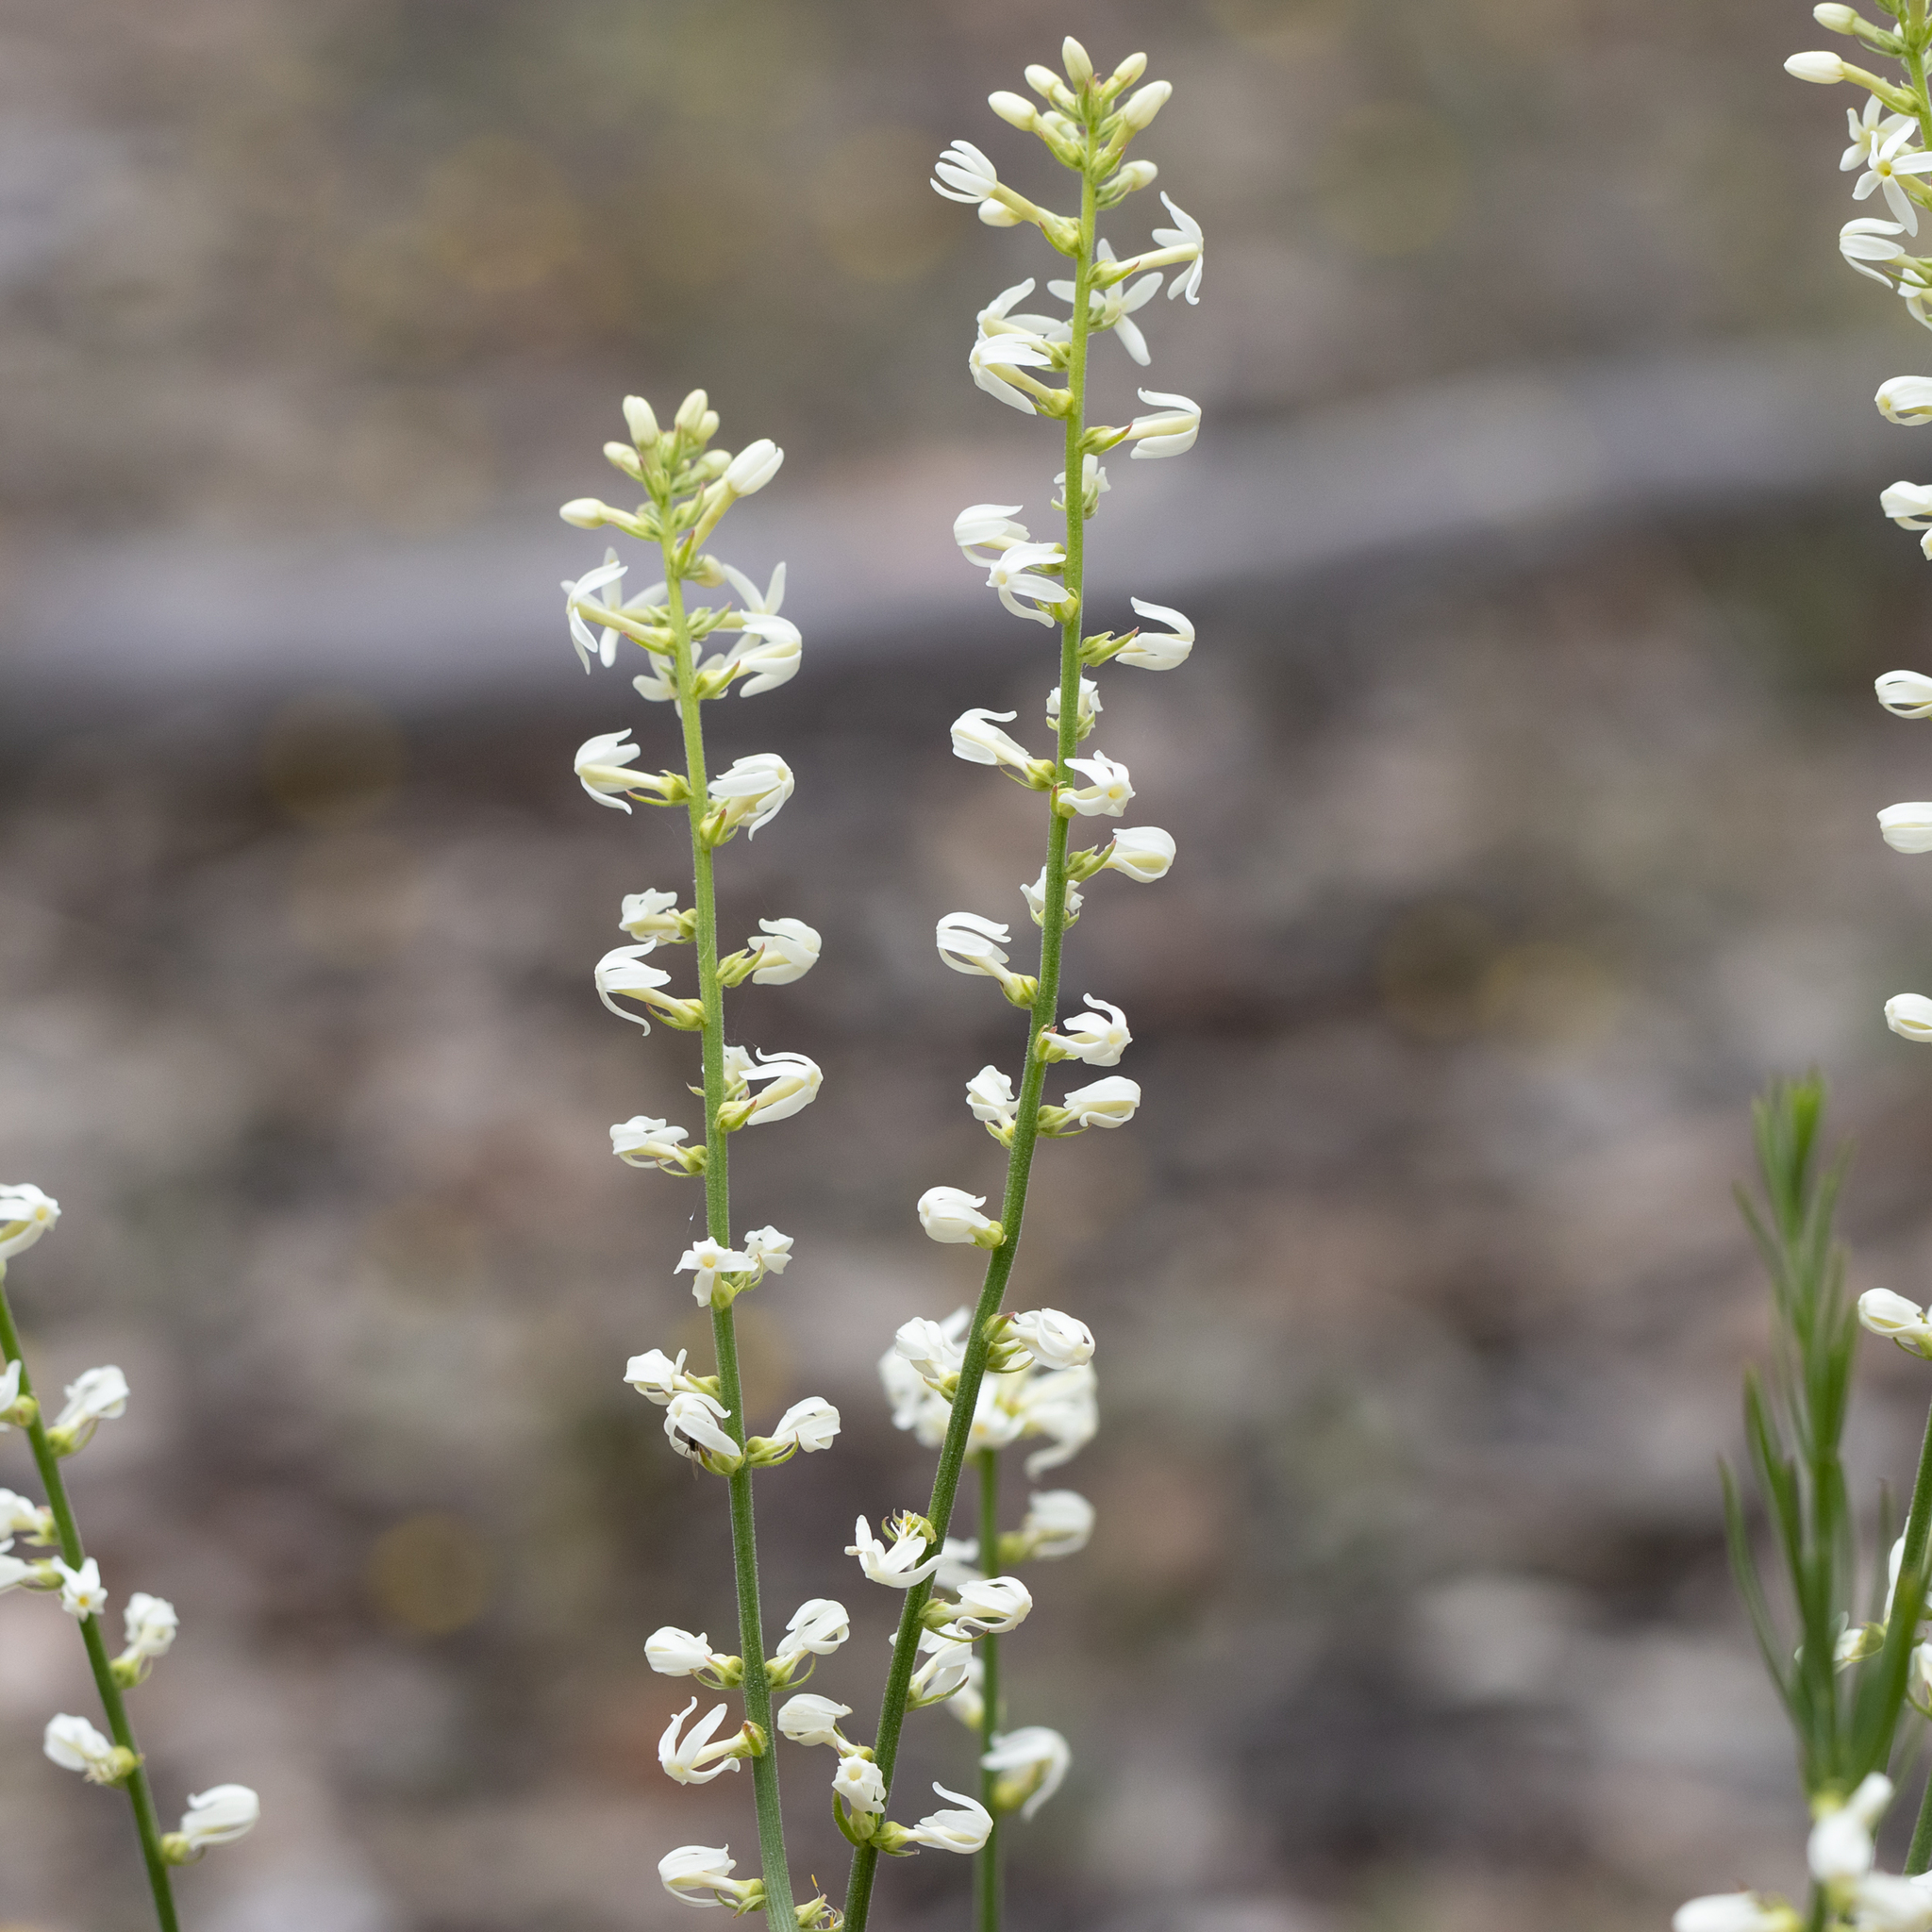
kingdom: Plantae
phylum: Tracheophyta
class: Magnoliopsida
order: Celastrales
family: Celastraceae
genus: Stackhousia
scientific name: Stackhousia monogyna
